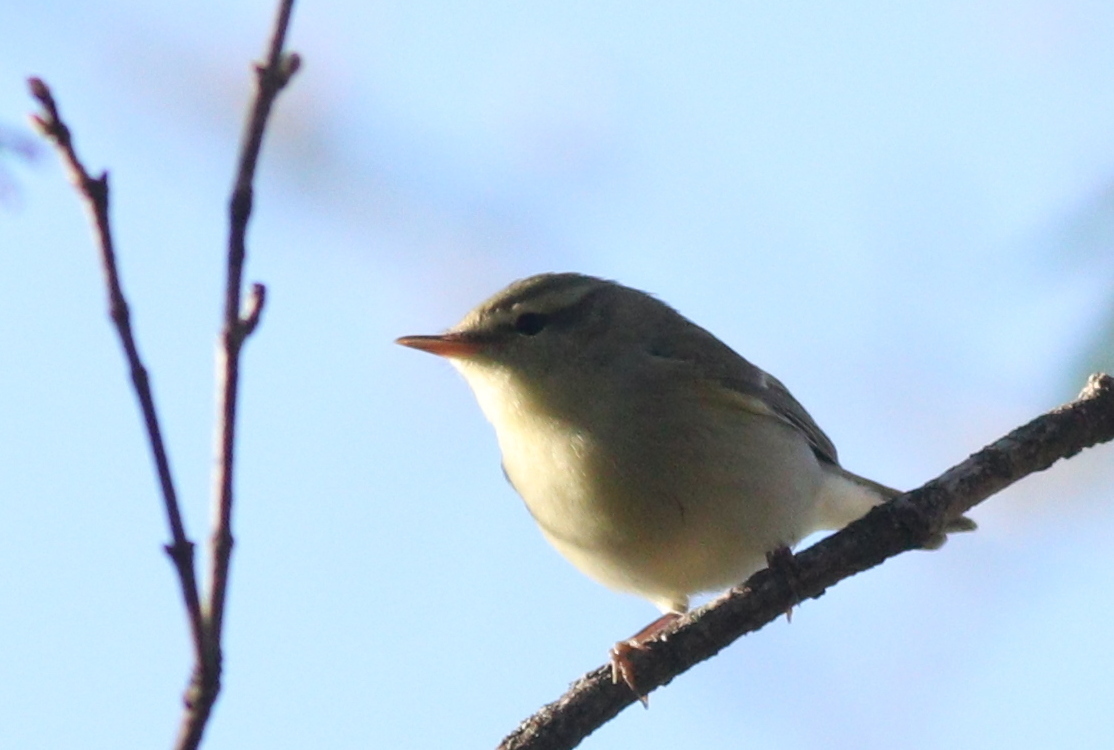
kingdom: Animalia
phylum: Chordata
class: Aves
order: Passeriformes
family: Phylloscopidae
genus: Phylloscopus
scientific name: Phylloscopus nitidus
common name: Green warbler
